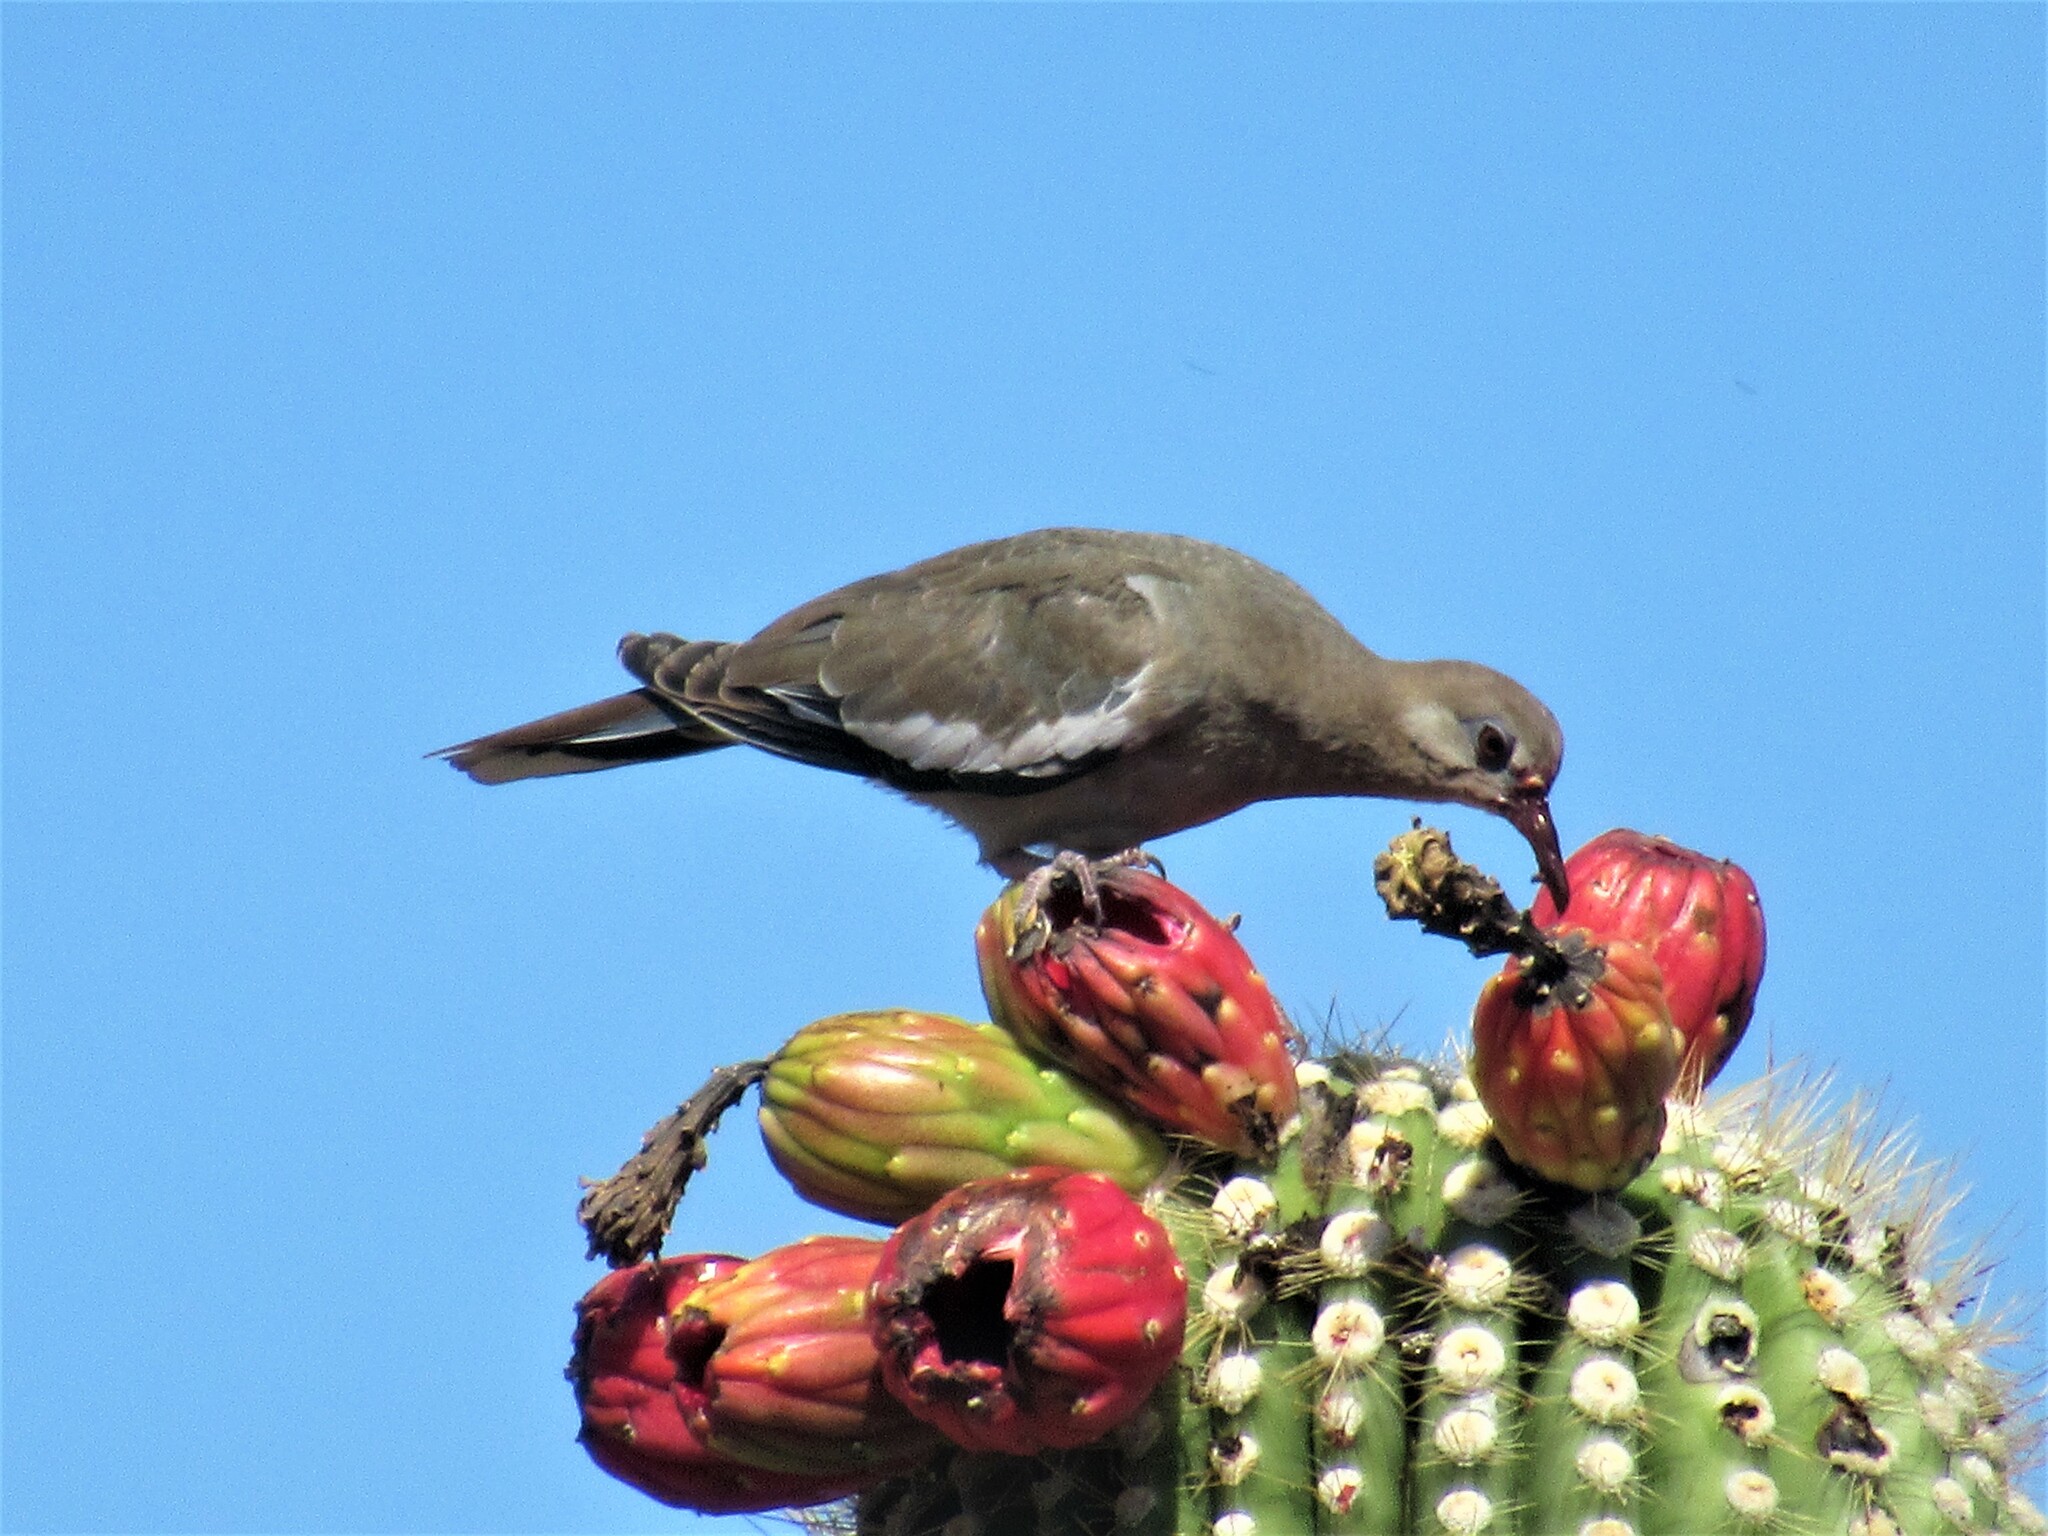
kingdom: Animalia
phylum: Chordata
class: Aves
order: Columbiformes
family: Columbidae
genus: Zenaida
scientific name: Zenaida asiatica
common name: White-winged dove
